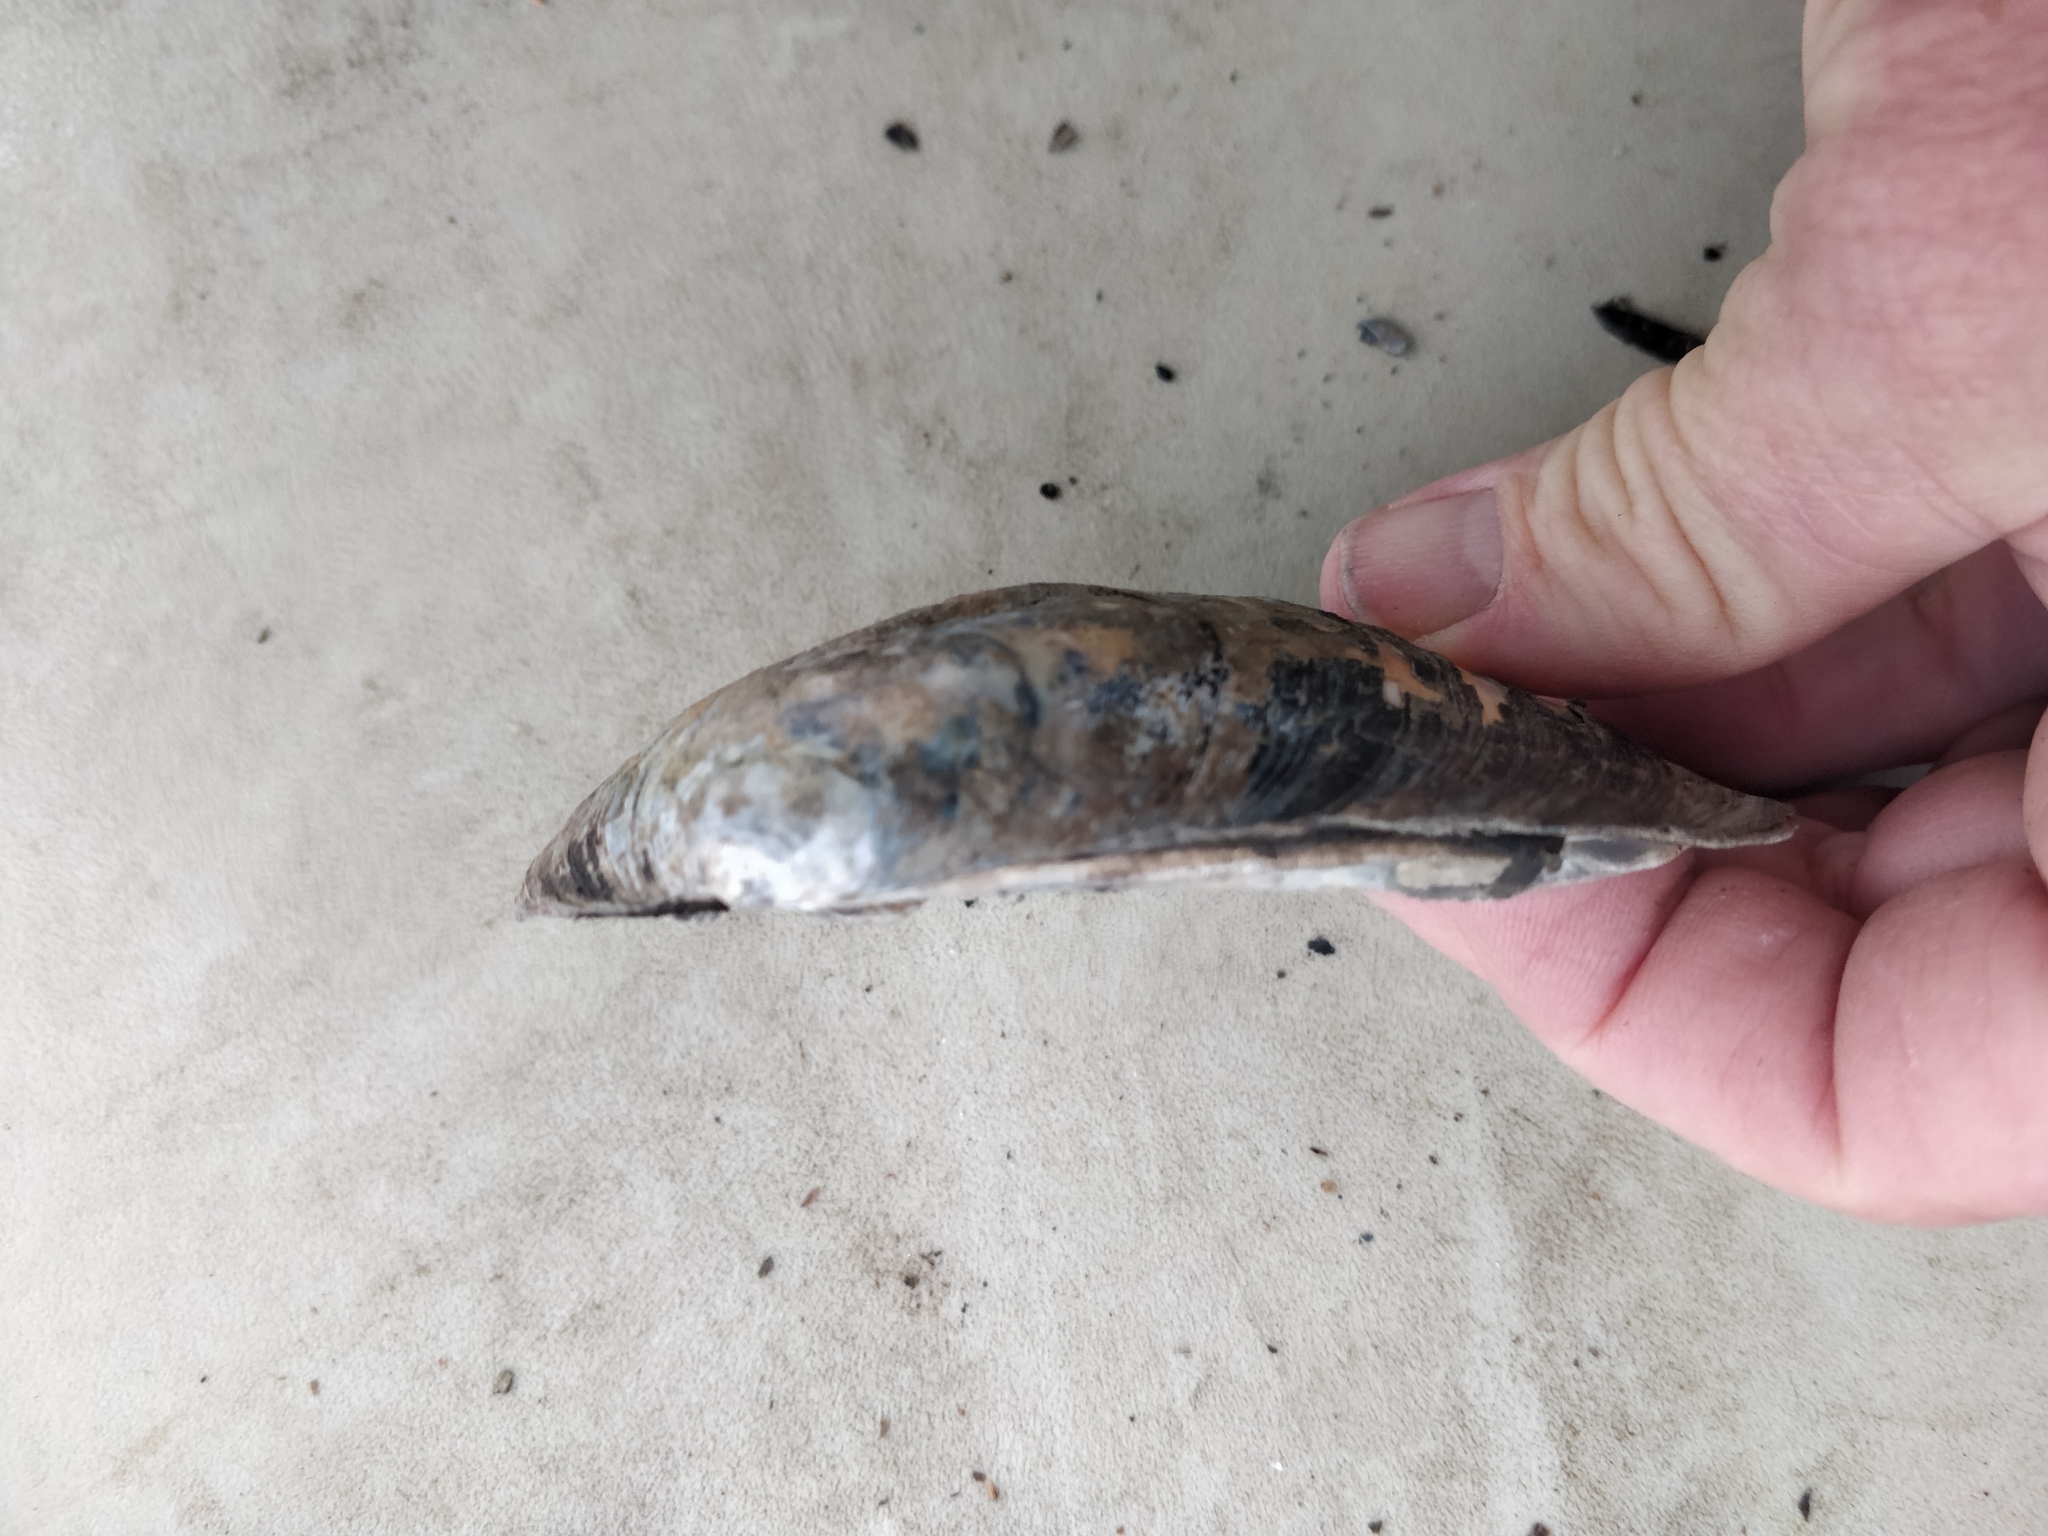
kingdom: Animalia
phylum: Mollusca
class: Bivalvia
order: Unionida
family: Unionidae
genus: Amblema
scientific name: Amblema plicata
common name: Threeridge
